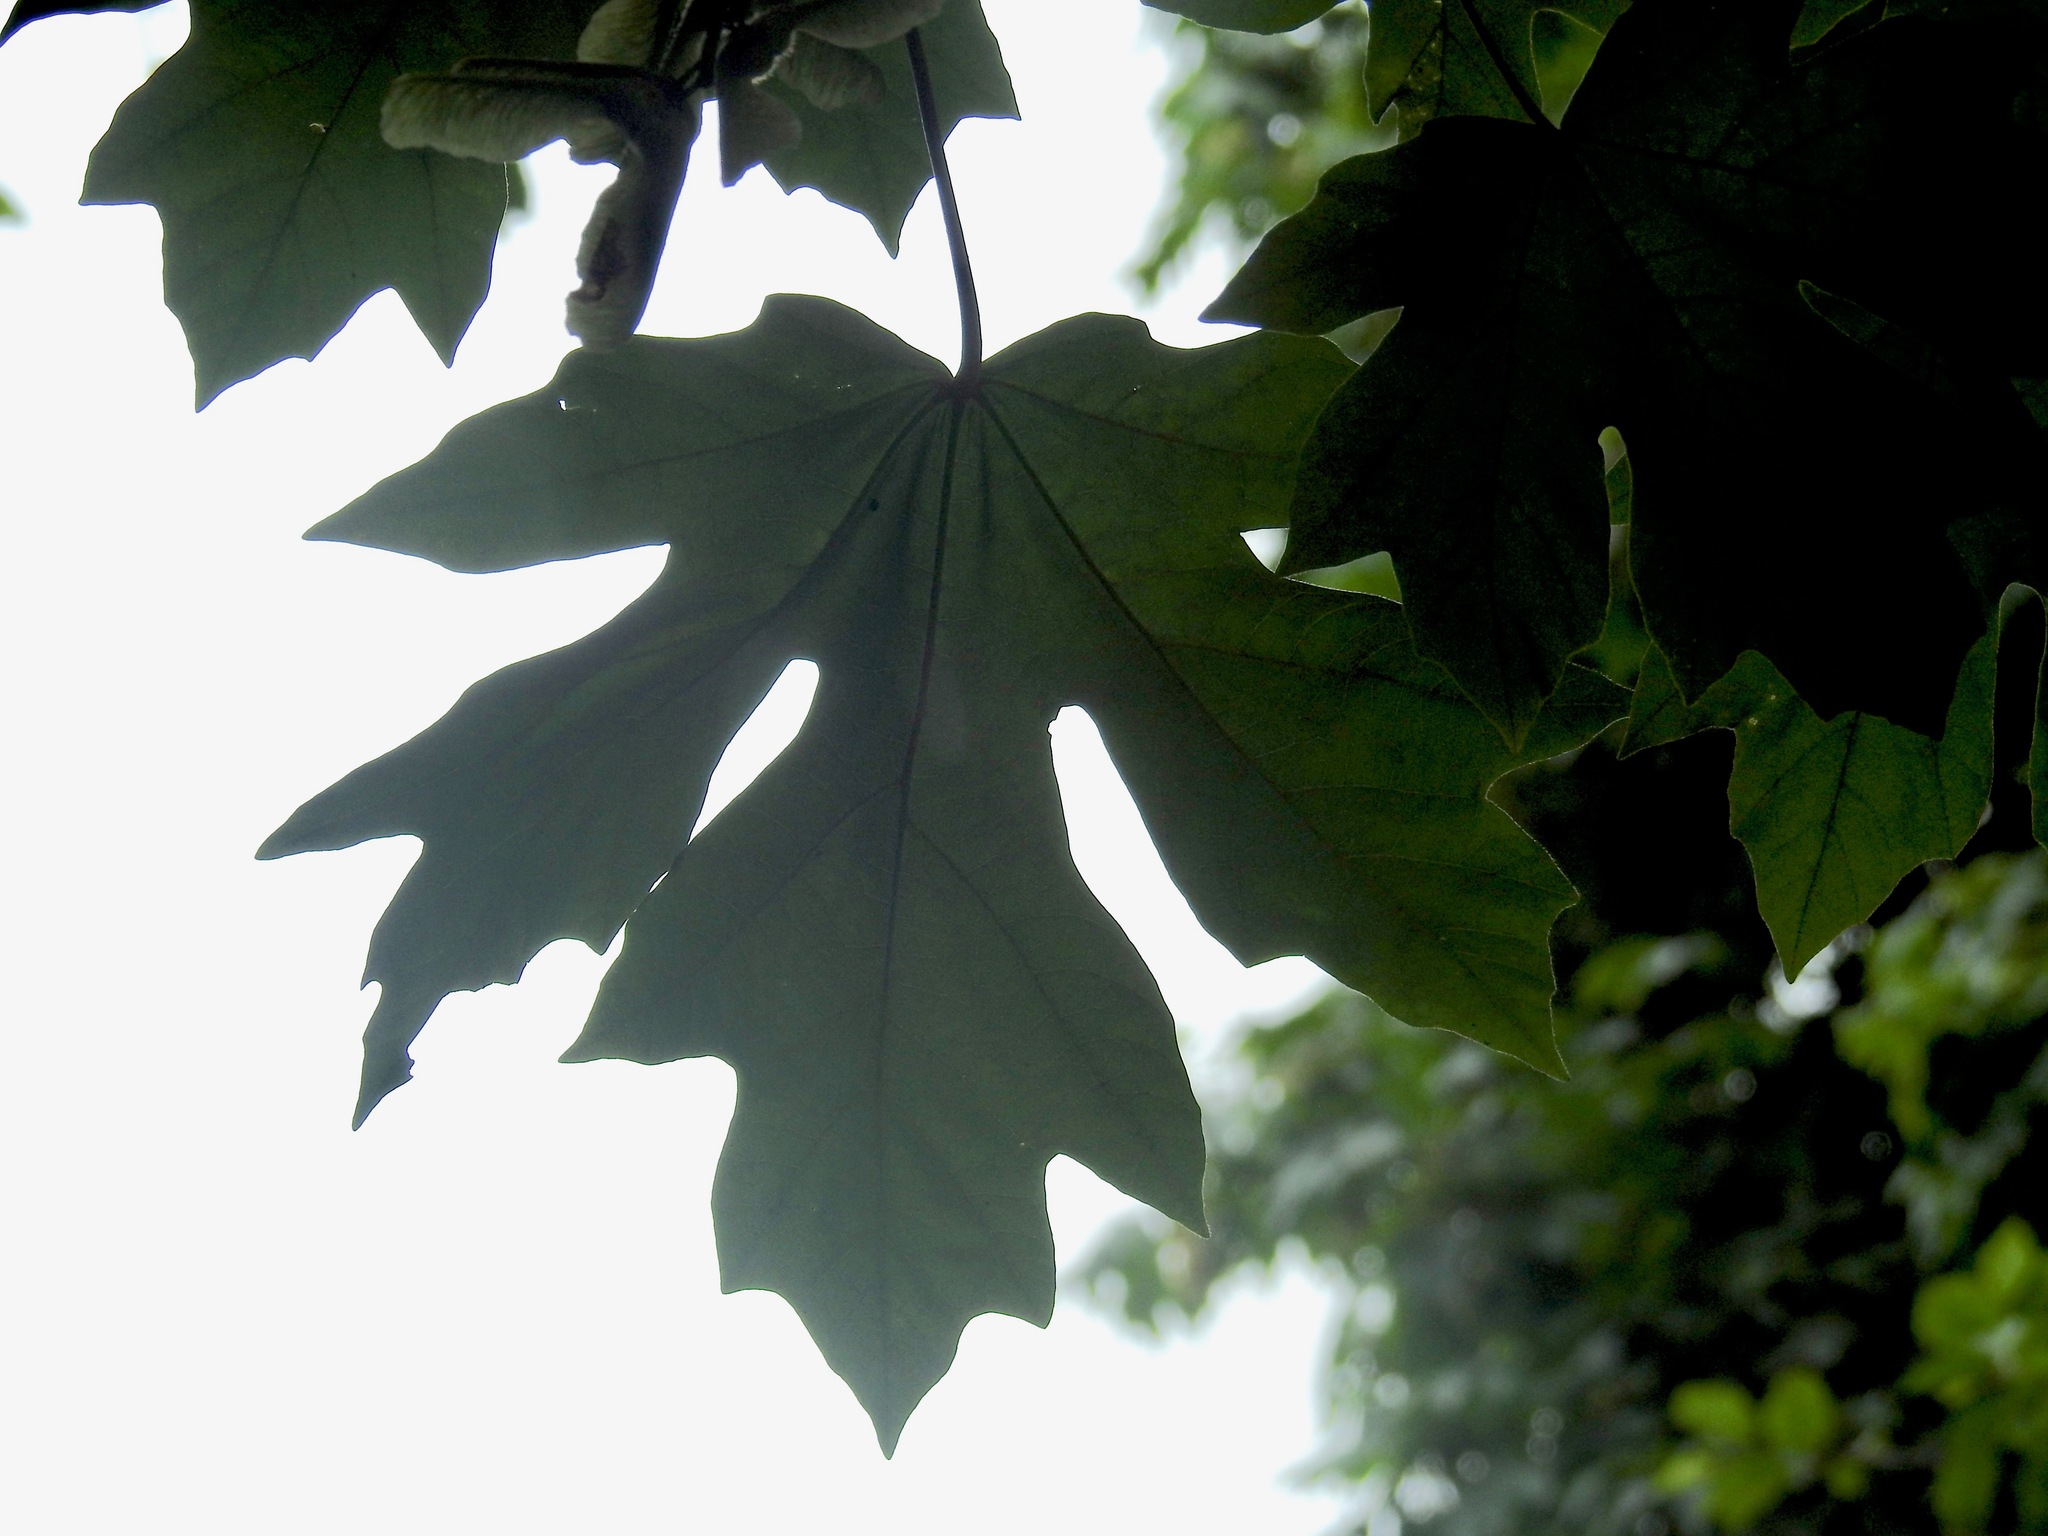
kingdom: Plantae
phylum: Tracheophyta
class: Magnoliopsida
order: Sapindales
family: Sapindaceae
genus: Acer
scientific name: Acer macrophyllum
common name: Oregon maple
